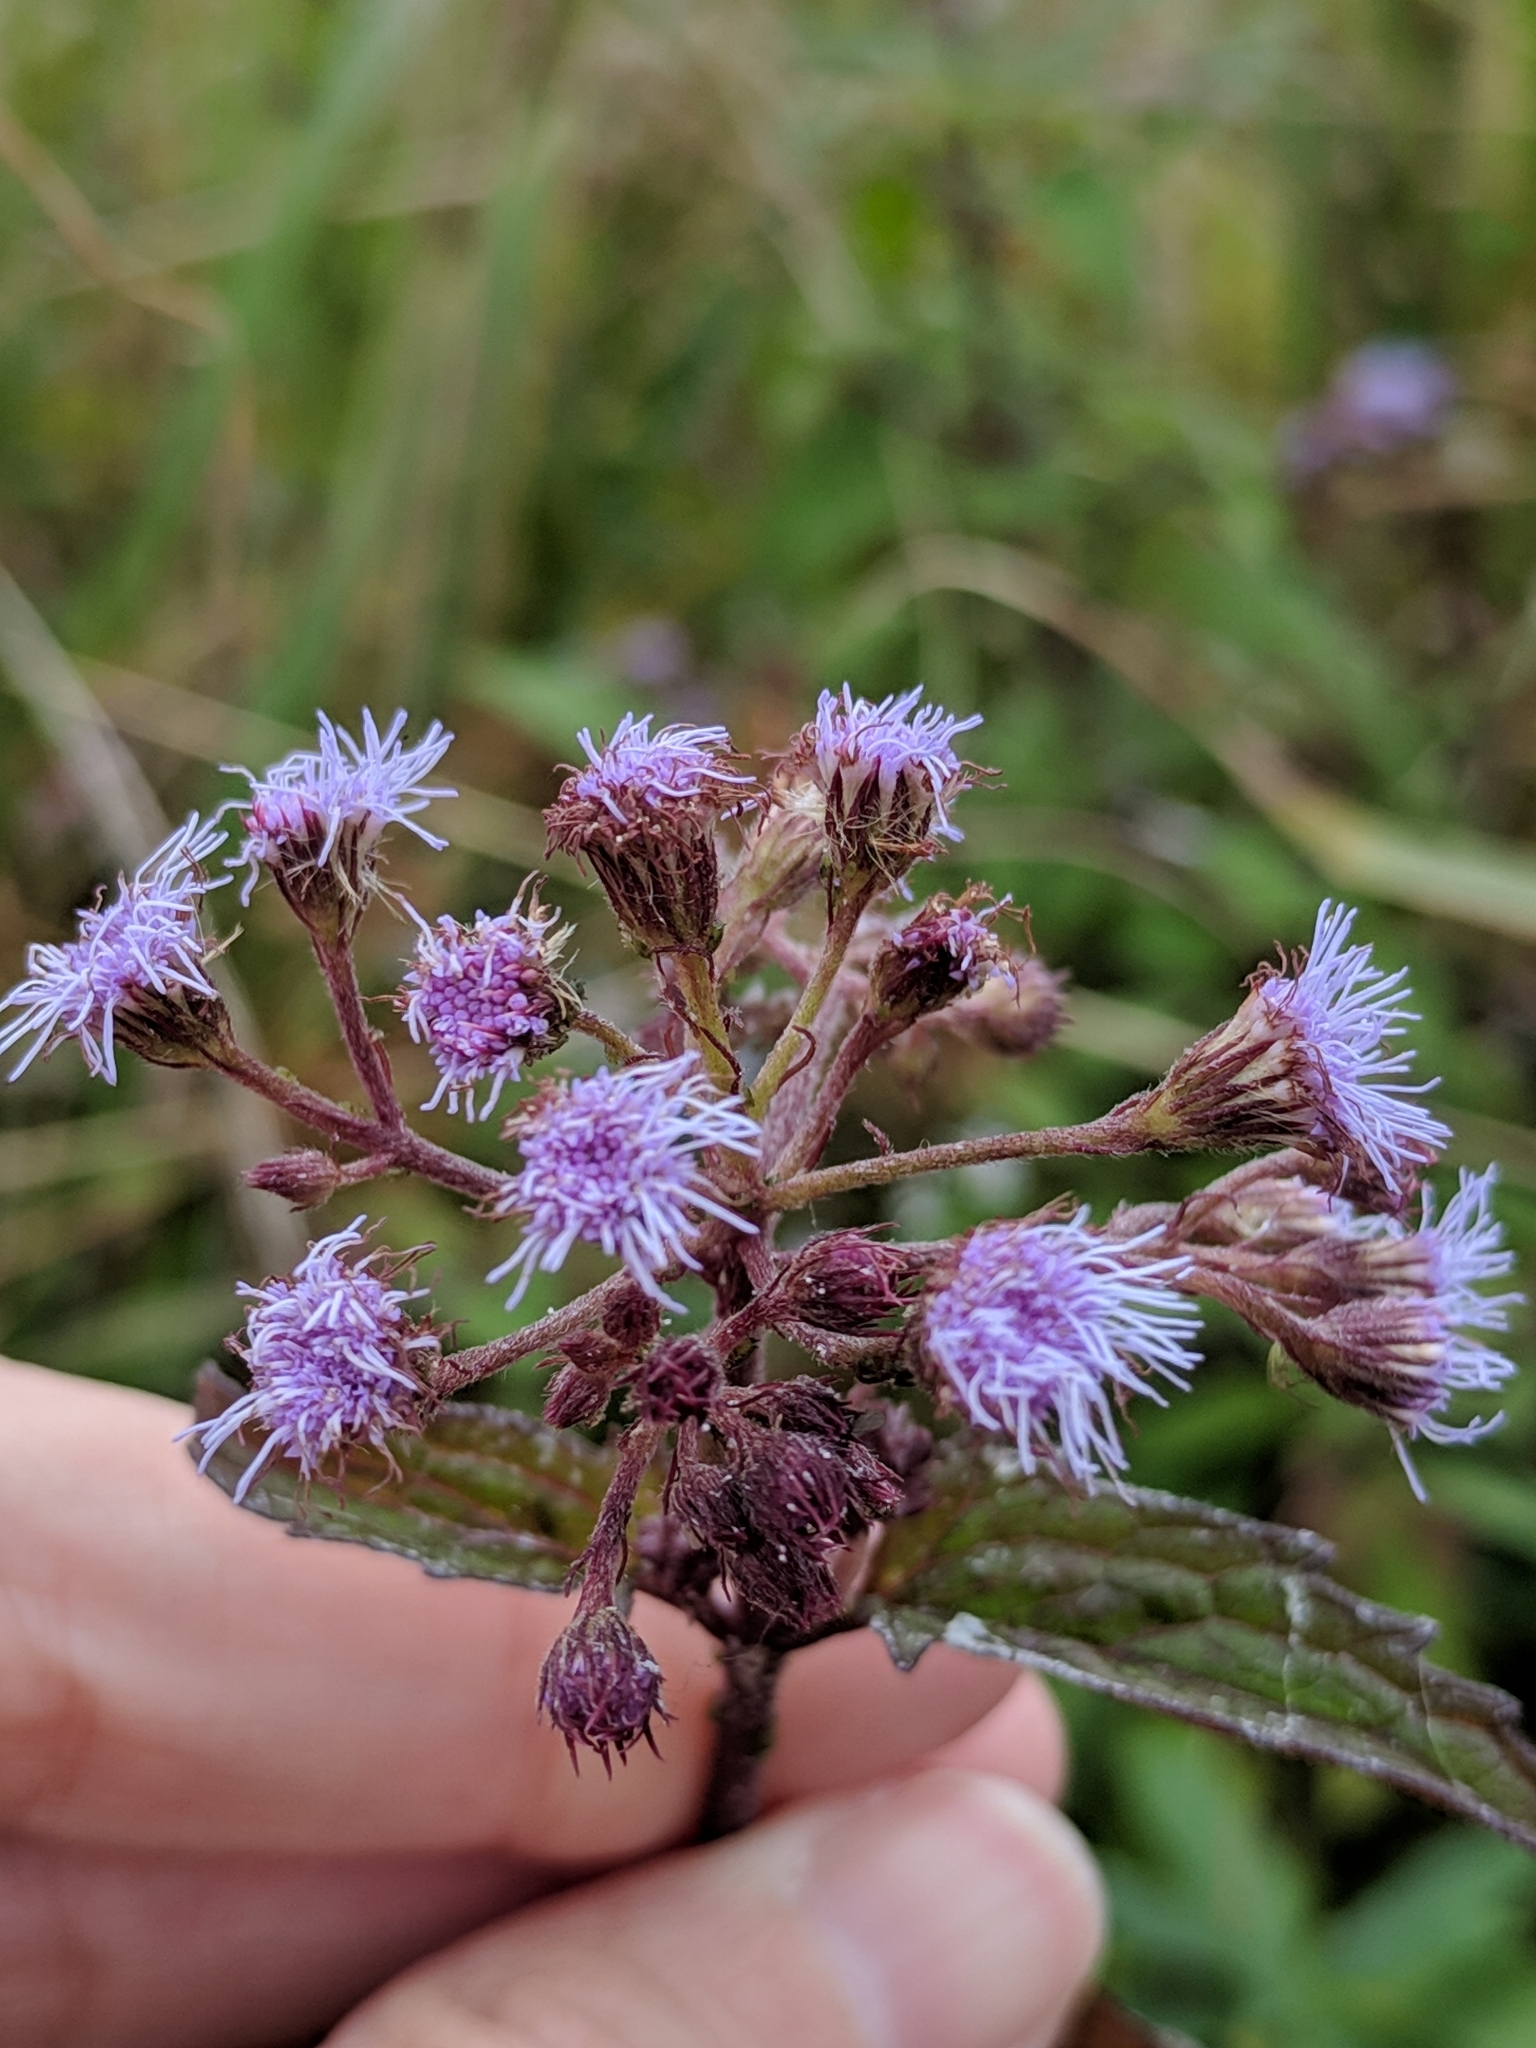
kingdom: Plantae
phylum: Tracheophyta
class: Magnoliopsida
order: Asterales
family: Asteraceae
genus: Conoclinium
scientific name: Conoclinium coelestinum
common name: Blue mistflower
